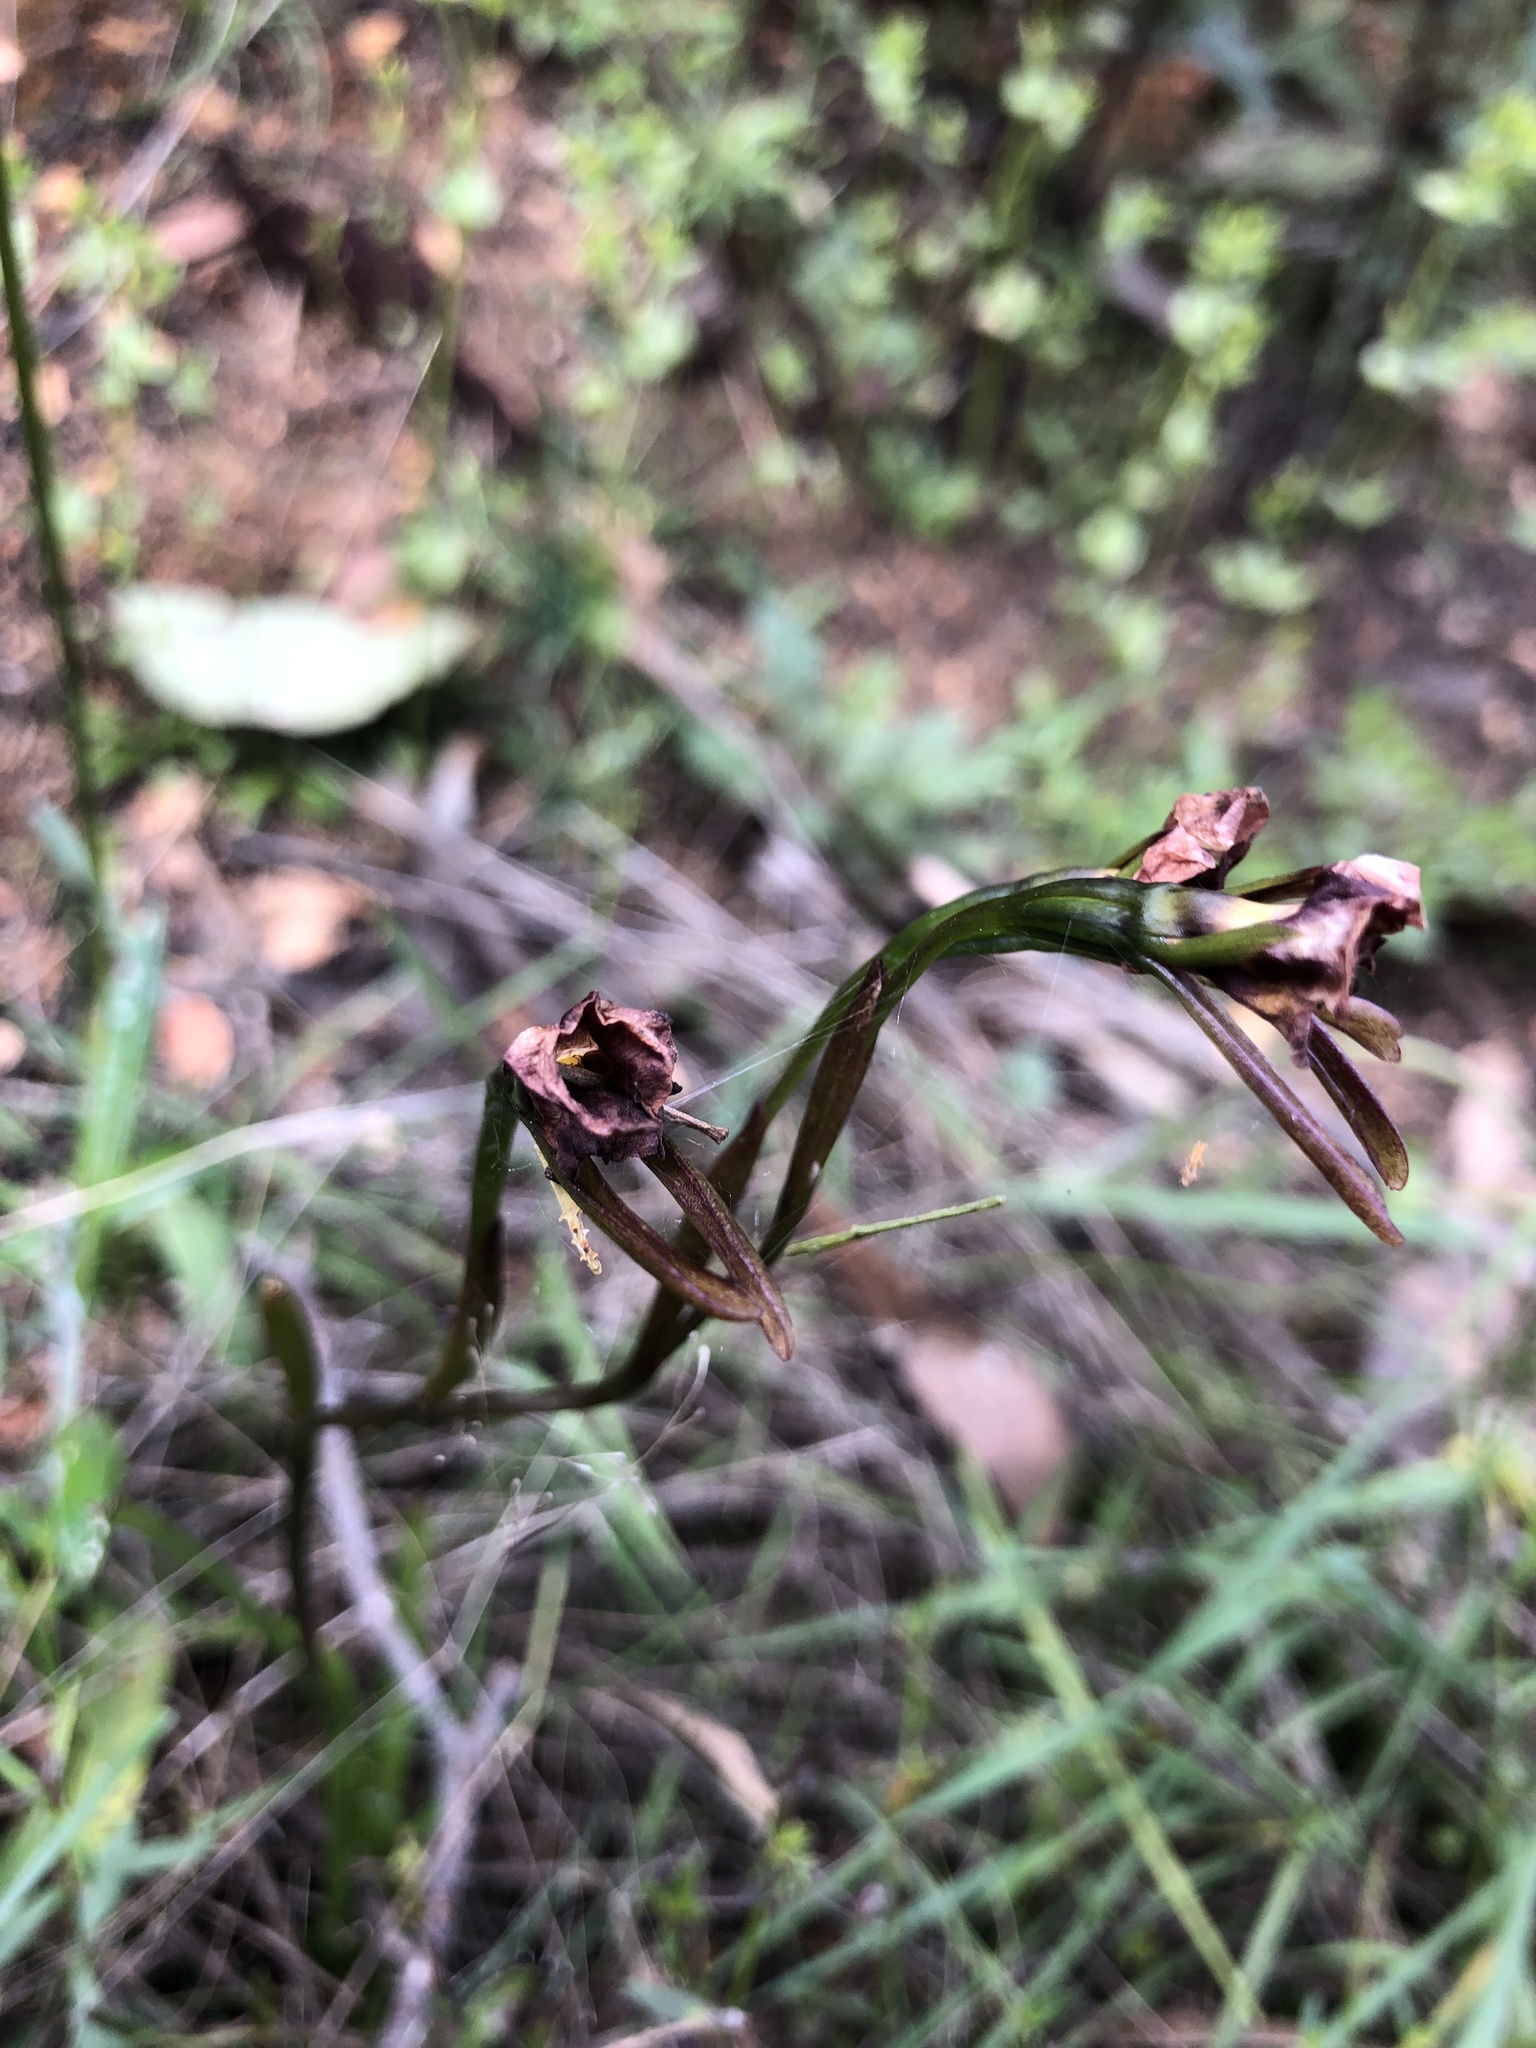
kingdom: Plantae
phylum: Tracheophyta
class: Liliopsida
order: Asparagales
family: Orchidaceae
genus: Diuris
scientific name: Diuris orientis
